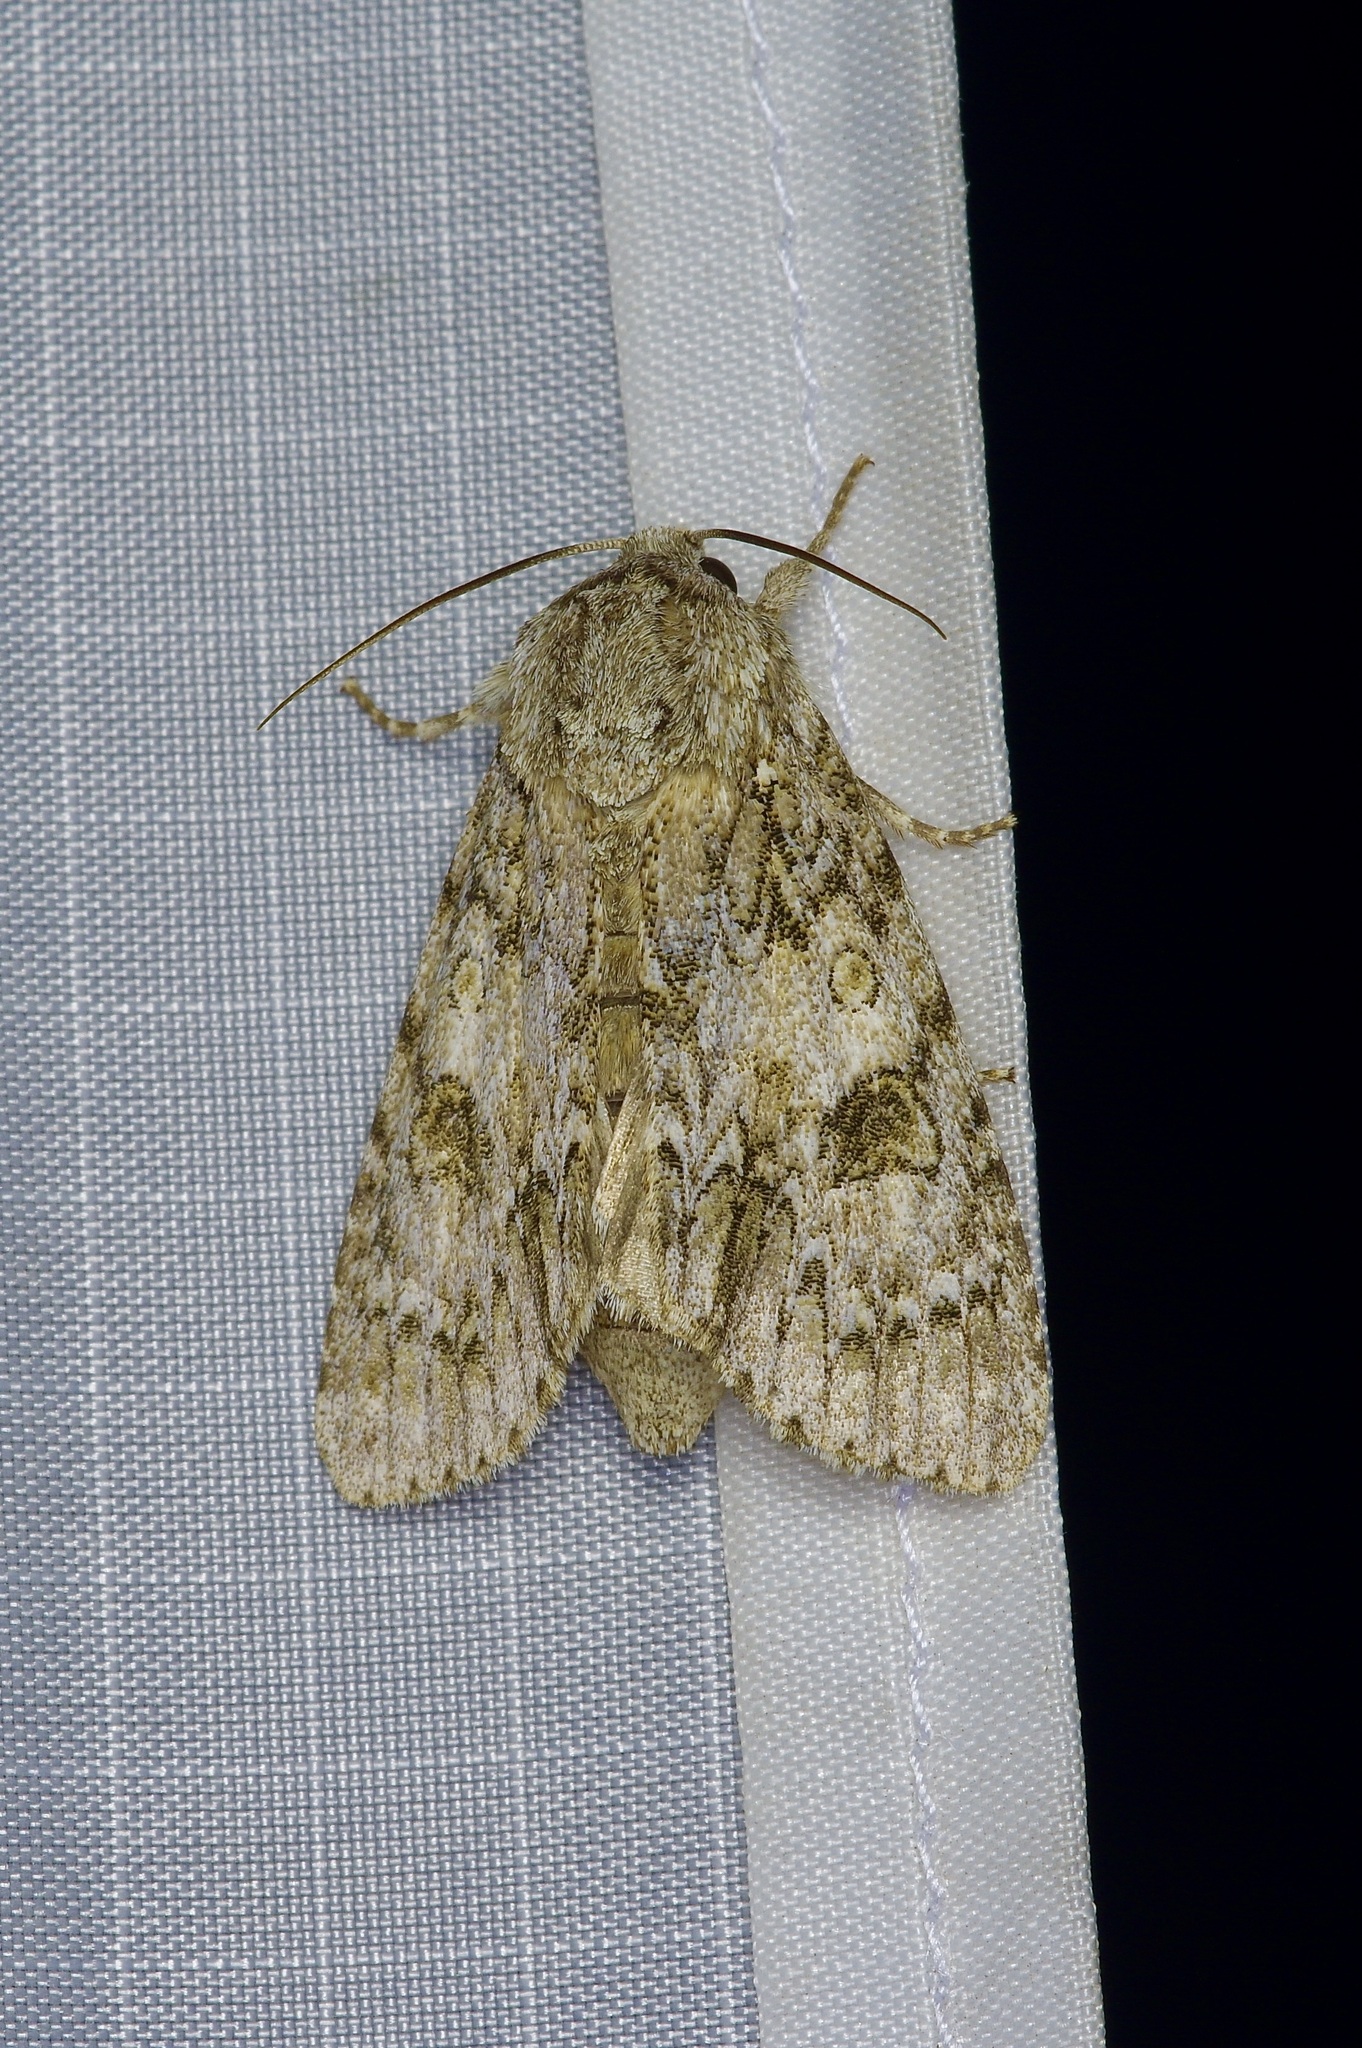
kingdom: Animalia
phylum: Arthropoda
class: Insecta
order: Lepidoptera
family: Noctuidae
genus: Acronicta
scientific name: Acronicta rubricoma
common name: Hackberry dagger
